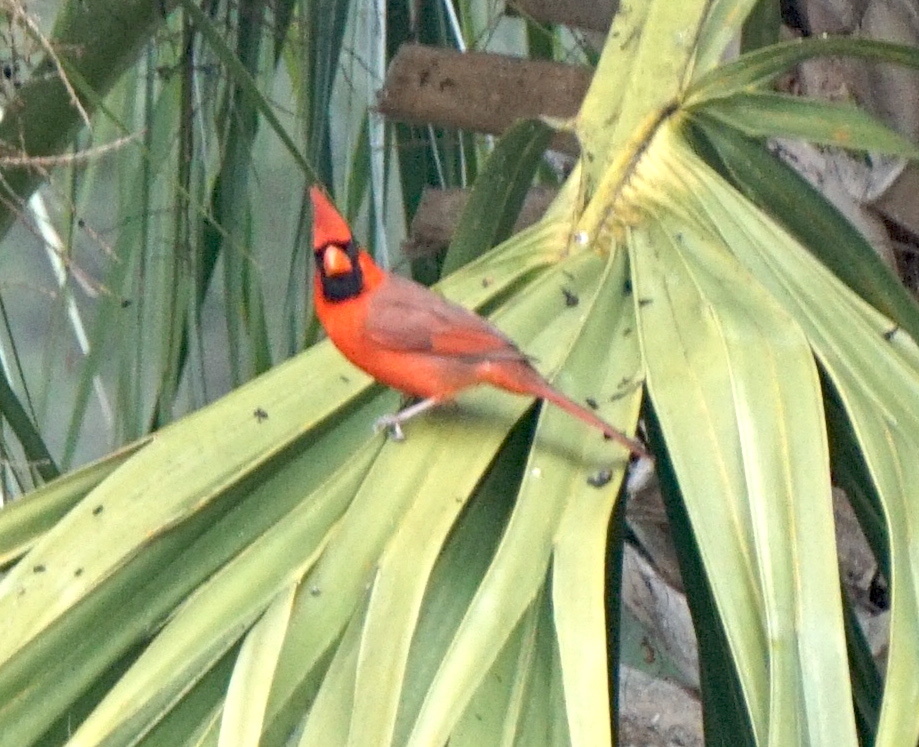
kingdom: Animalia
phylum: Chordata
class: Aves
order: Passeriformes
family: Cardinalidae
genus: Cardinalis
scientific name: Cardinalis cardinalis
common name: Northern cardinal
